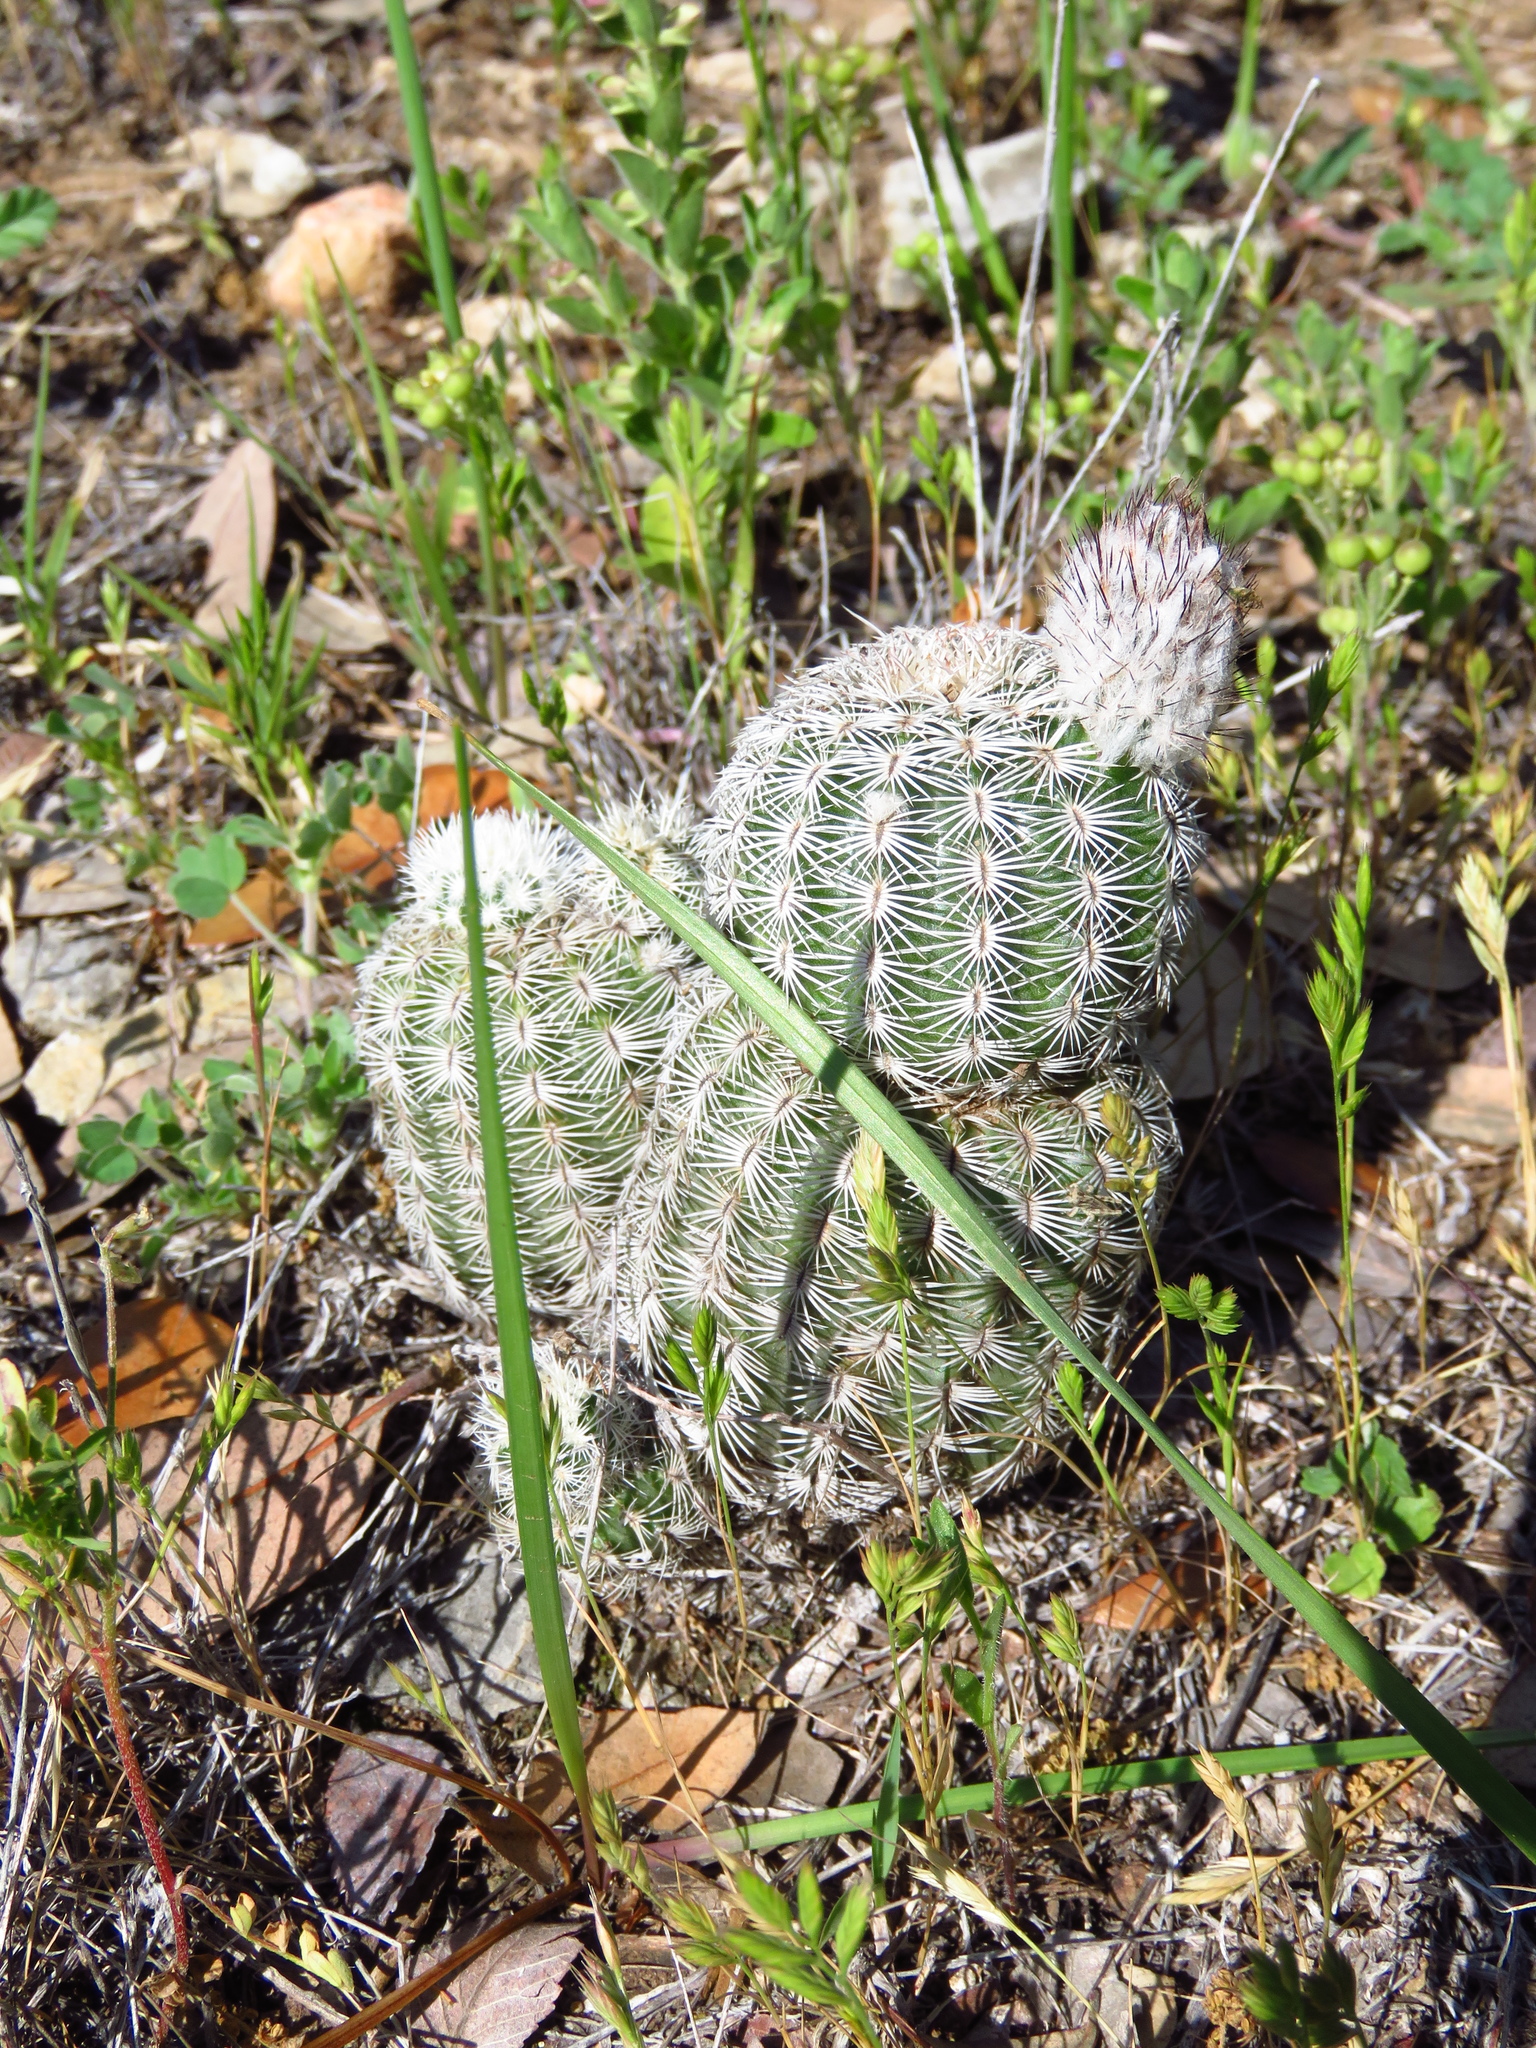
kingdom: Plantae
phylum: Tracheophyta
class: Magnoliopsida
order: Caryophyllales
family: Cactaceae
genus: Echinocereus
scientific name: Echinocereus reichenbachii
